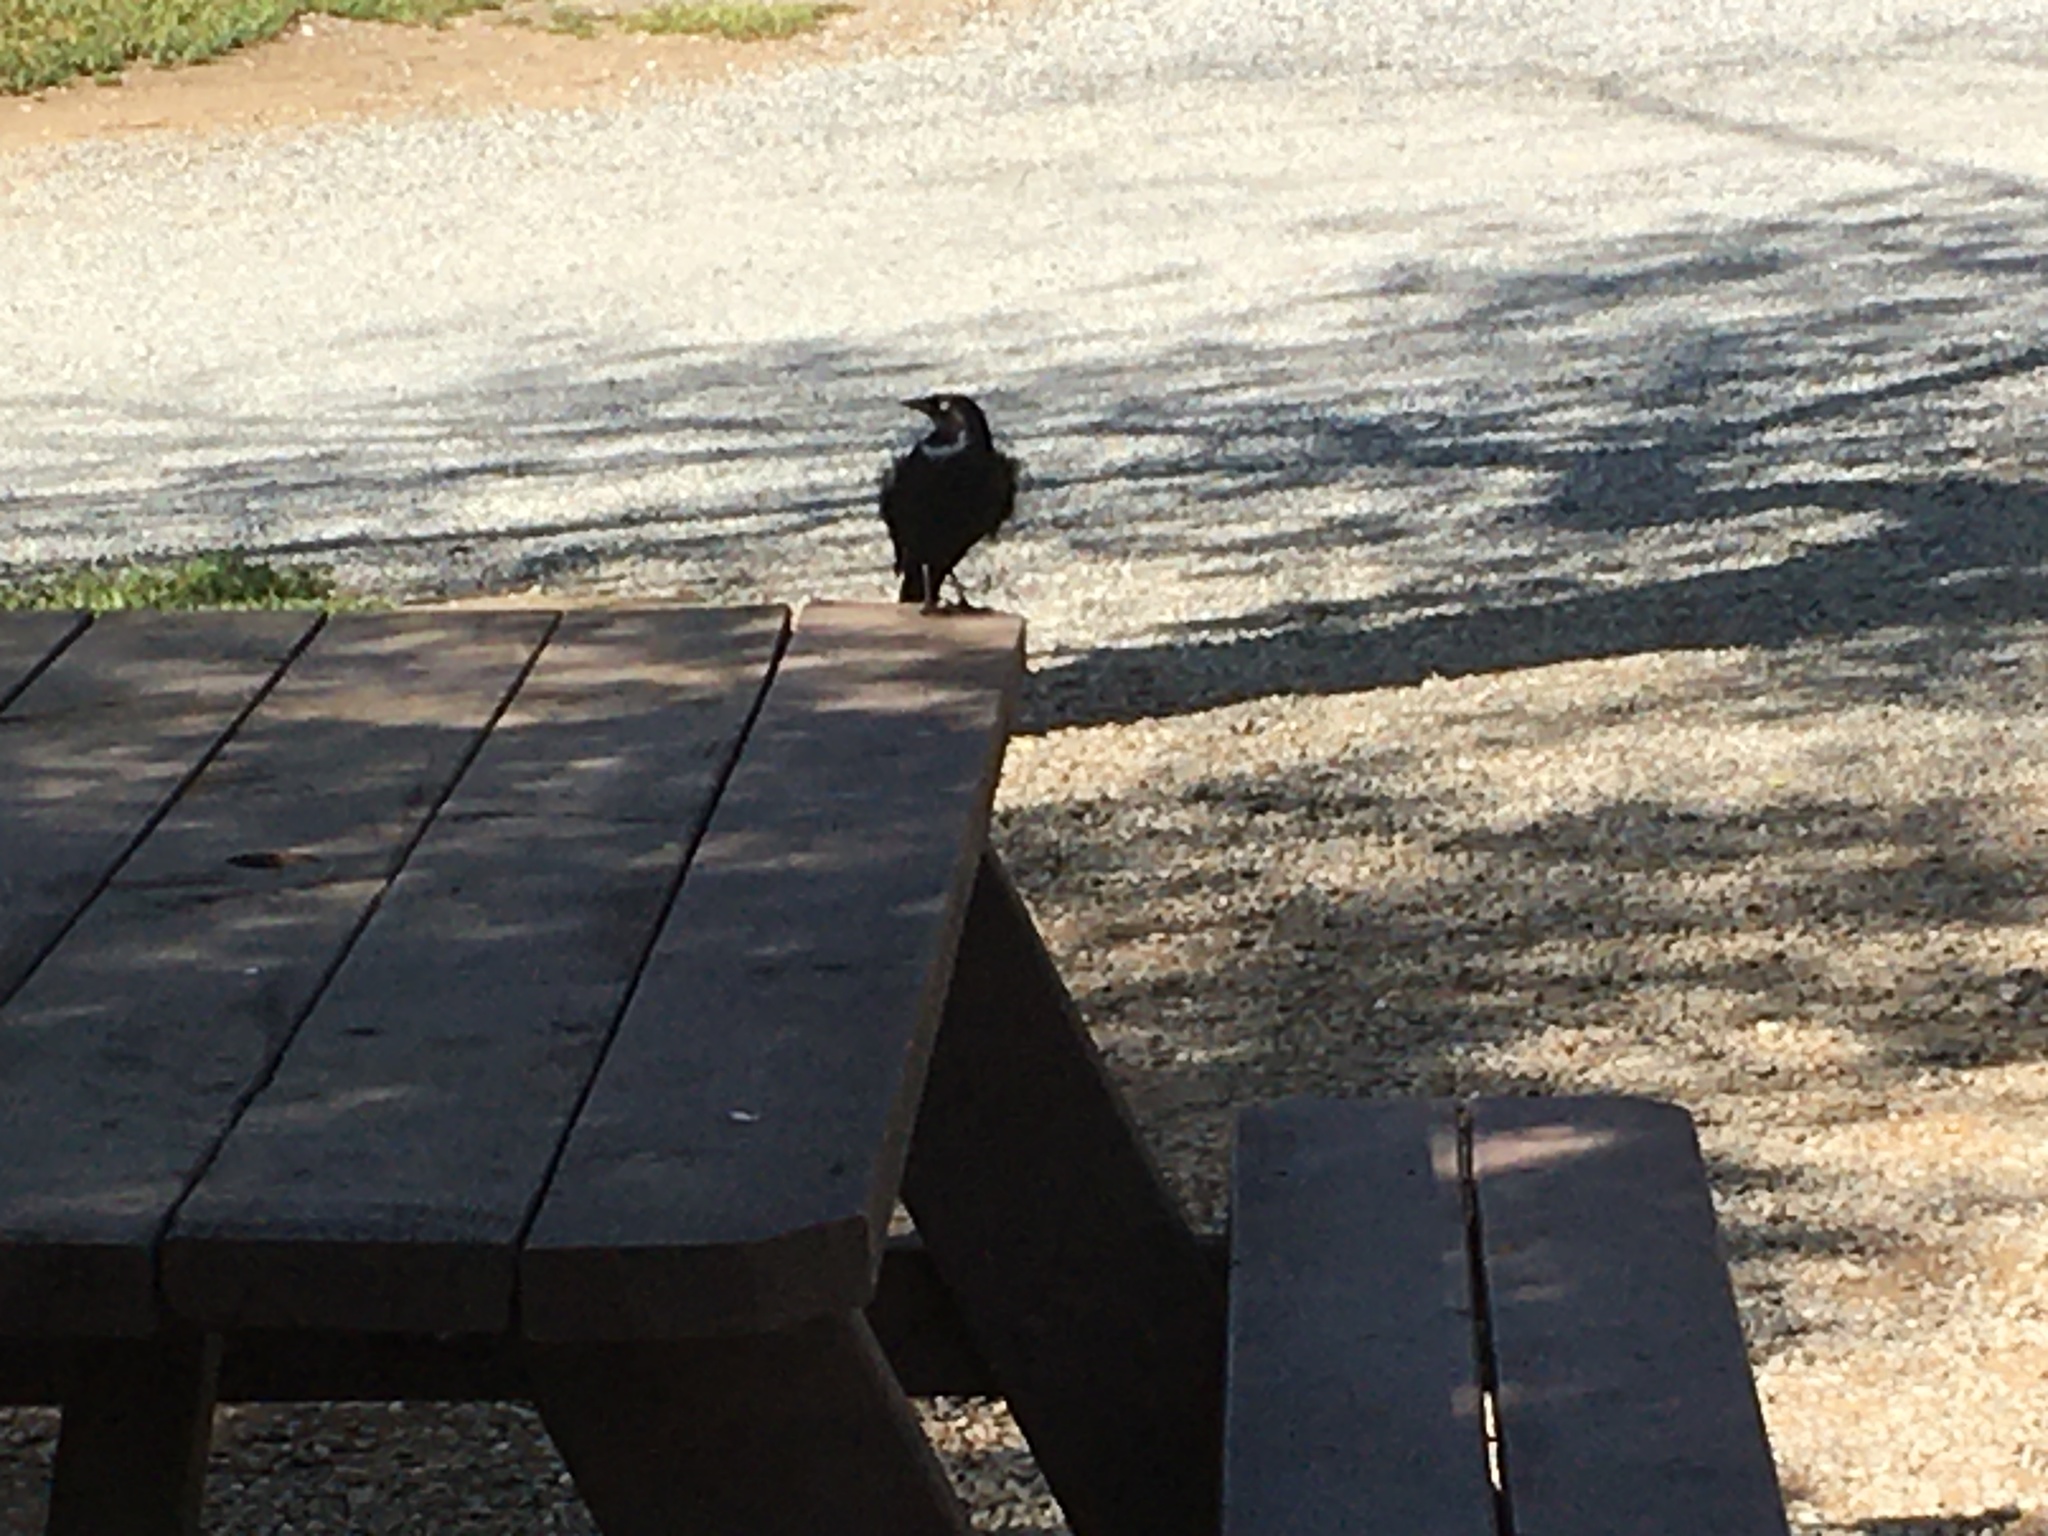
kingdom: Animalia
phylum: Chordata
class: Aves
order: Passeriformes
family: Icteridae
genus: Euphagus
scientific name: Euphagus cyanocephalus
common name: Brewer's blackbird
